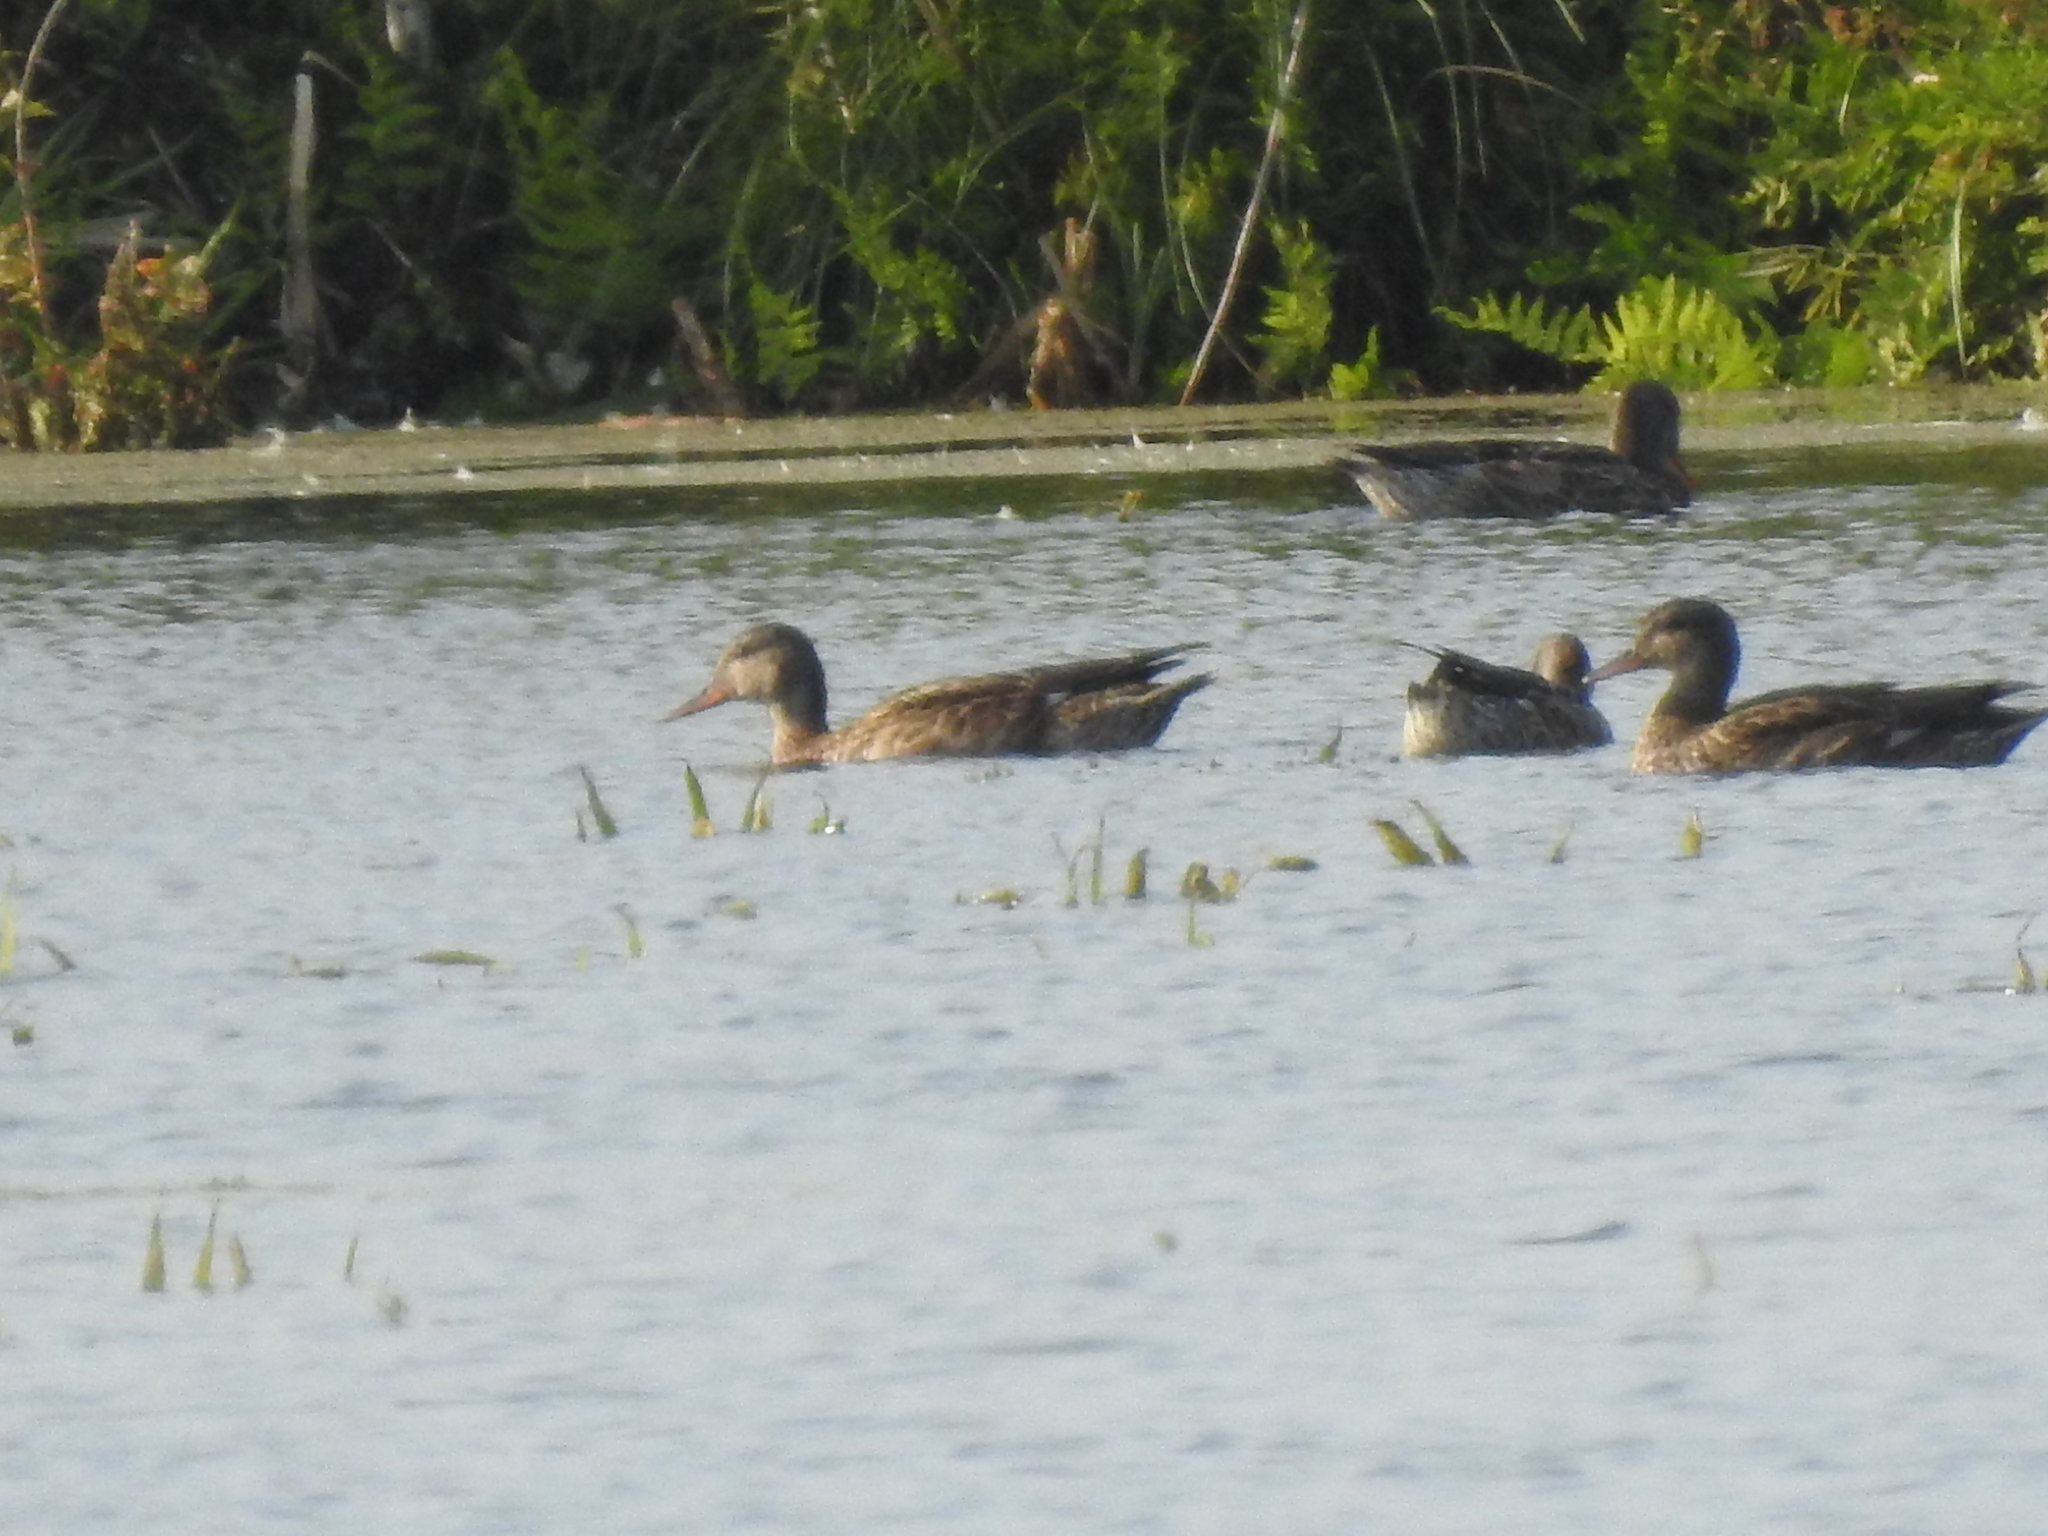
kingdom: Animalia
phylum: Chordata
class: Aves
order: Anseriformes
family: Anatidae
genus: Mareca
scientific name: Mareca strepera
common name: Gadwall
